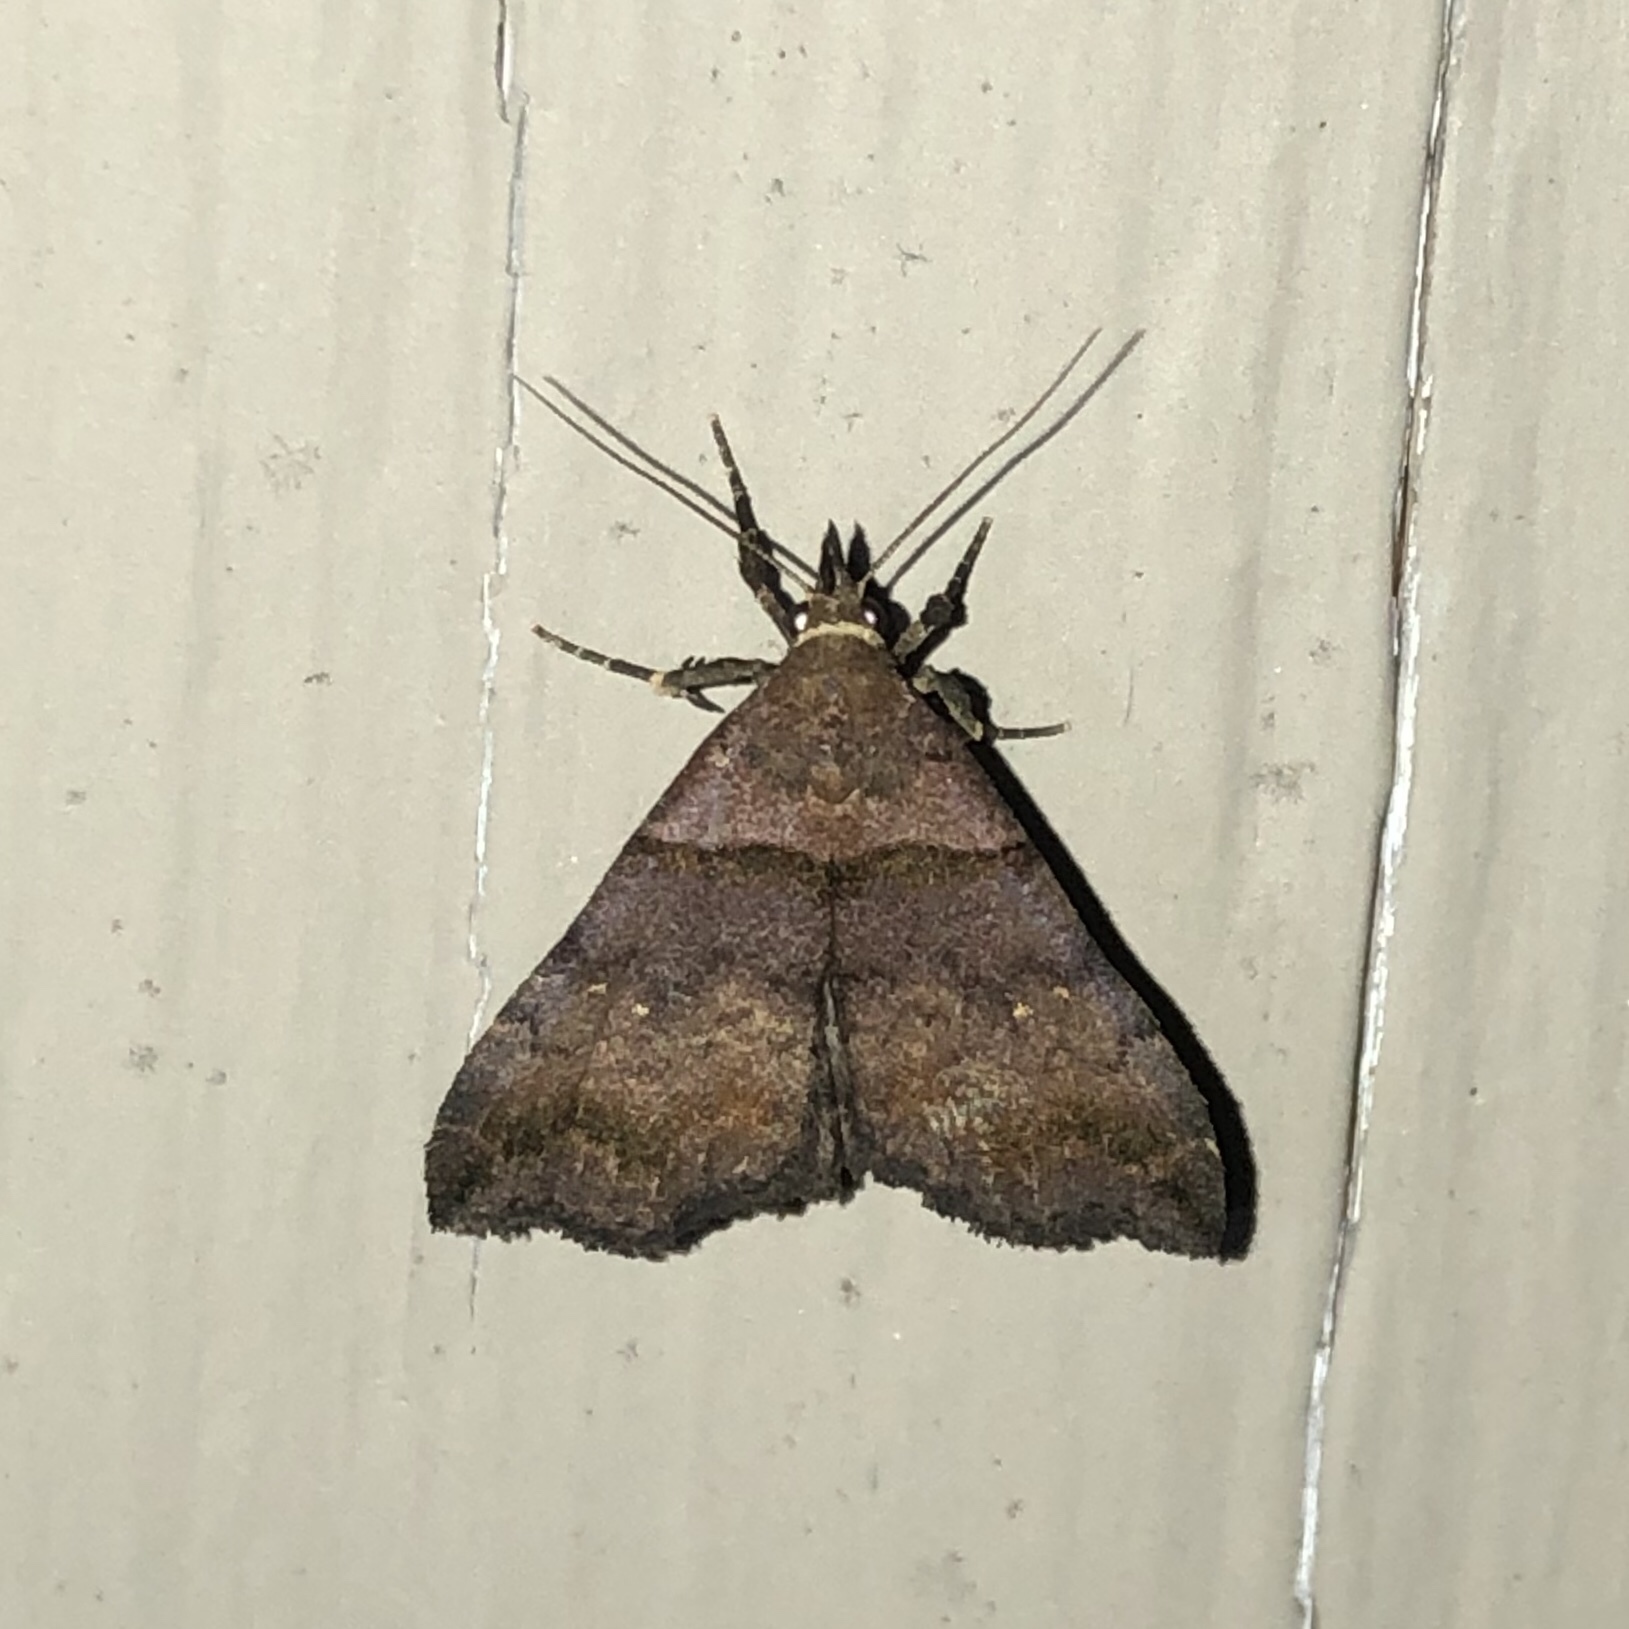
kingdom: Animalia
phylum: Arthropoda
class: Insecta
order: Lepidoptera
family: Erebidae
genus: Lascoria
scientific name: Lascoria ambigualis
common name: Ambiguous moth
